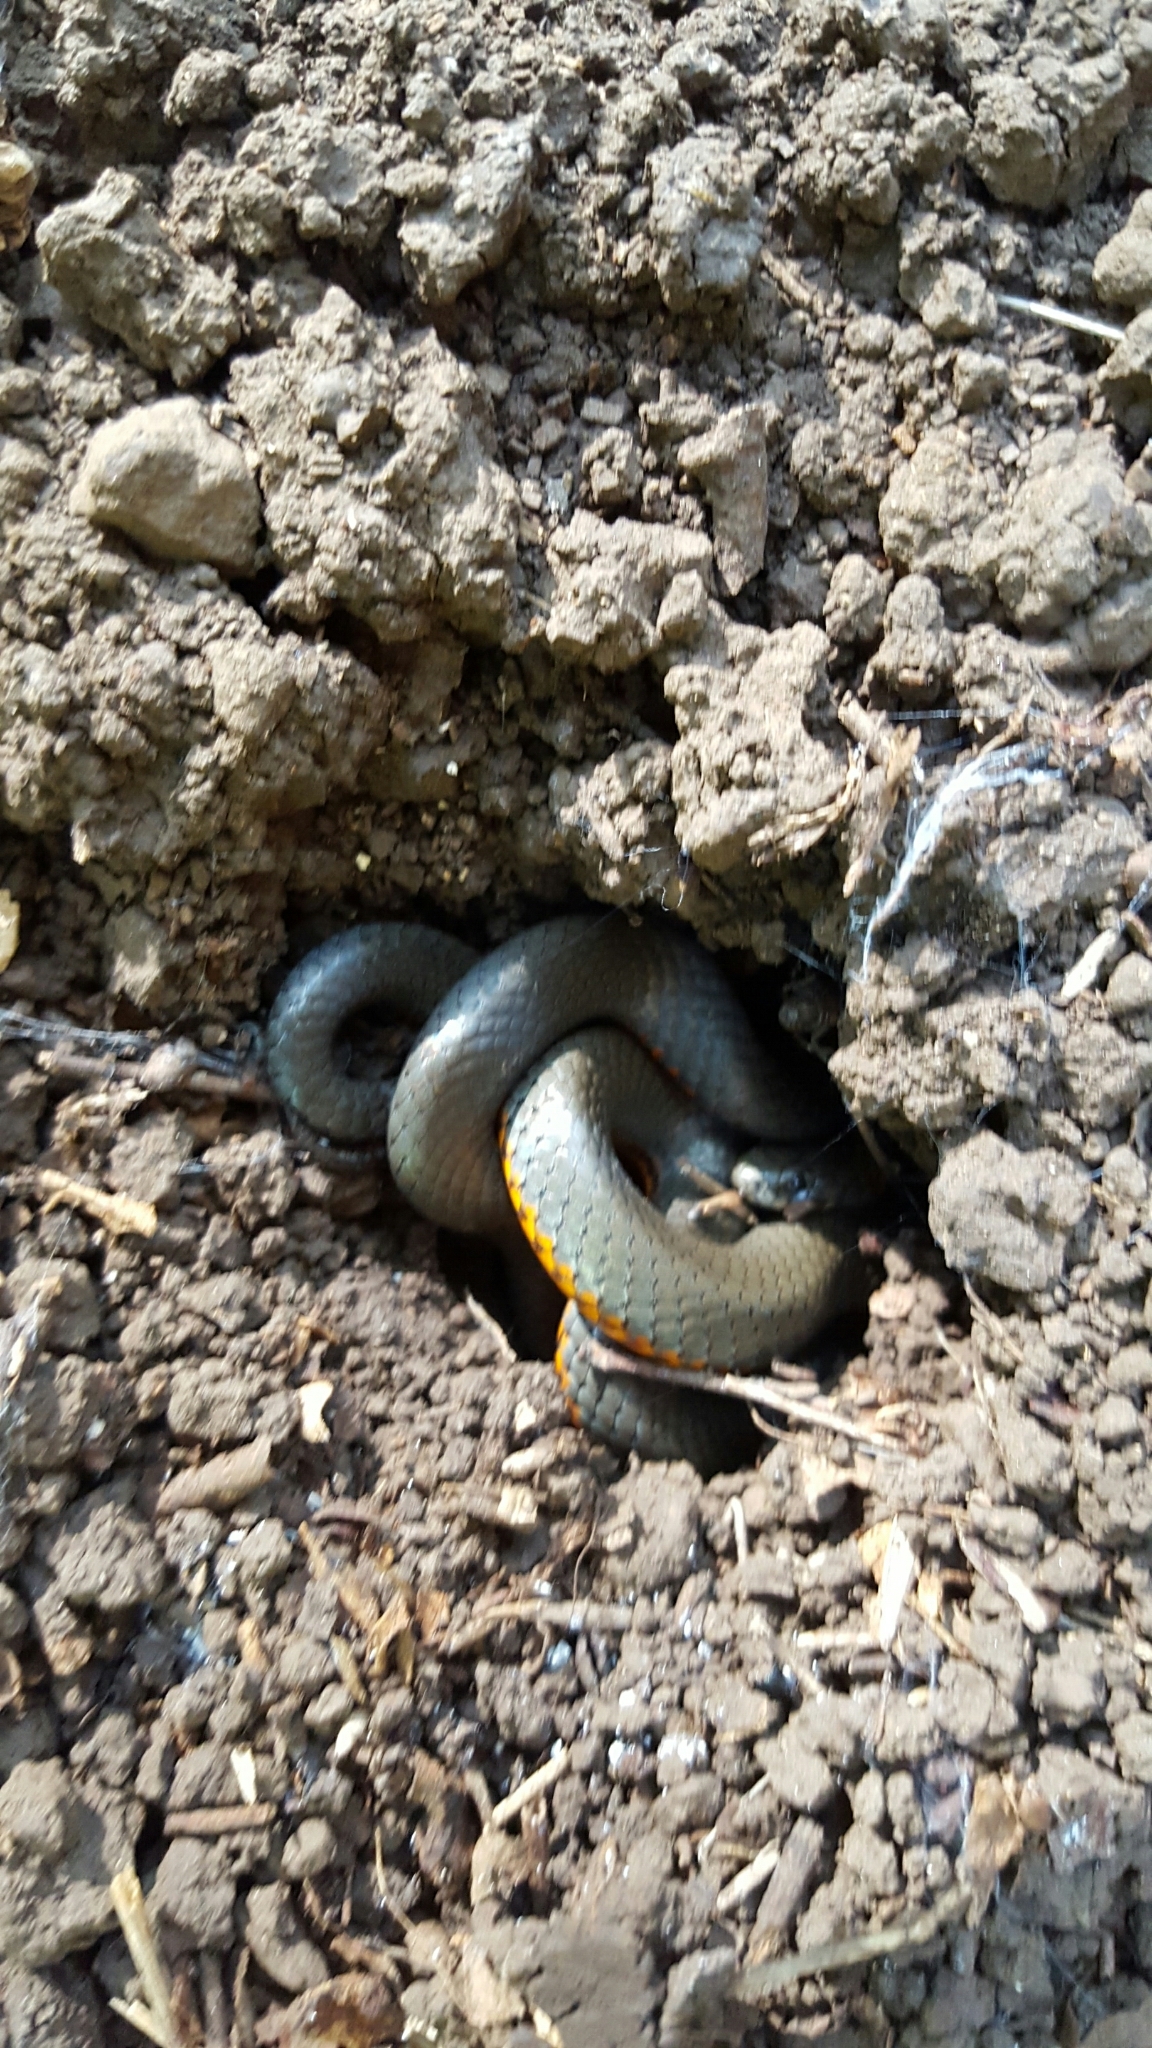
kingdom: Animalia
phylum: Chordata
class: Squamata
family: Colubridae
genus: Diadophis
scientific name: Diadophis punctatus
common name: Ringneck snake
